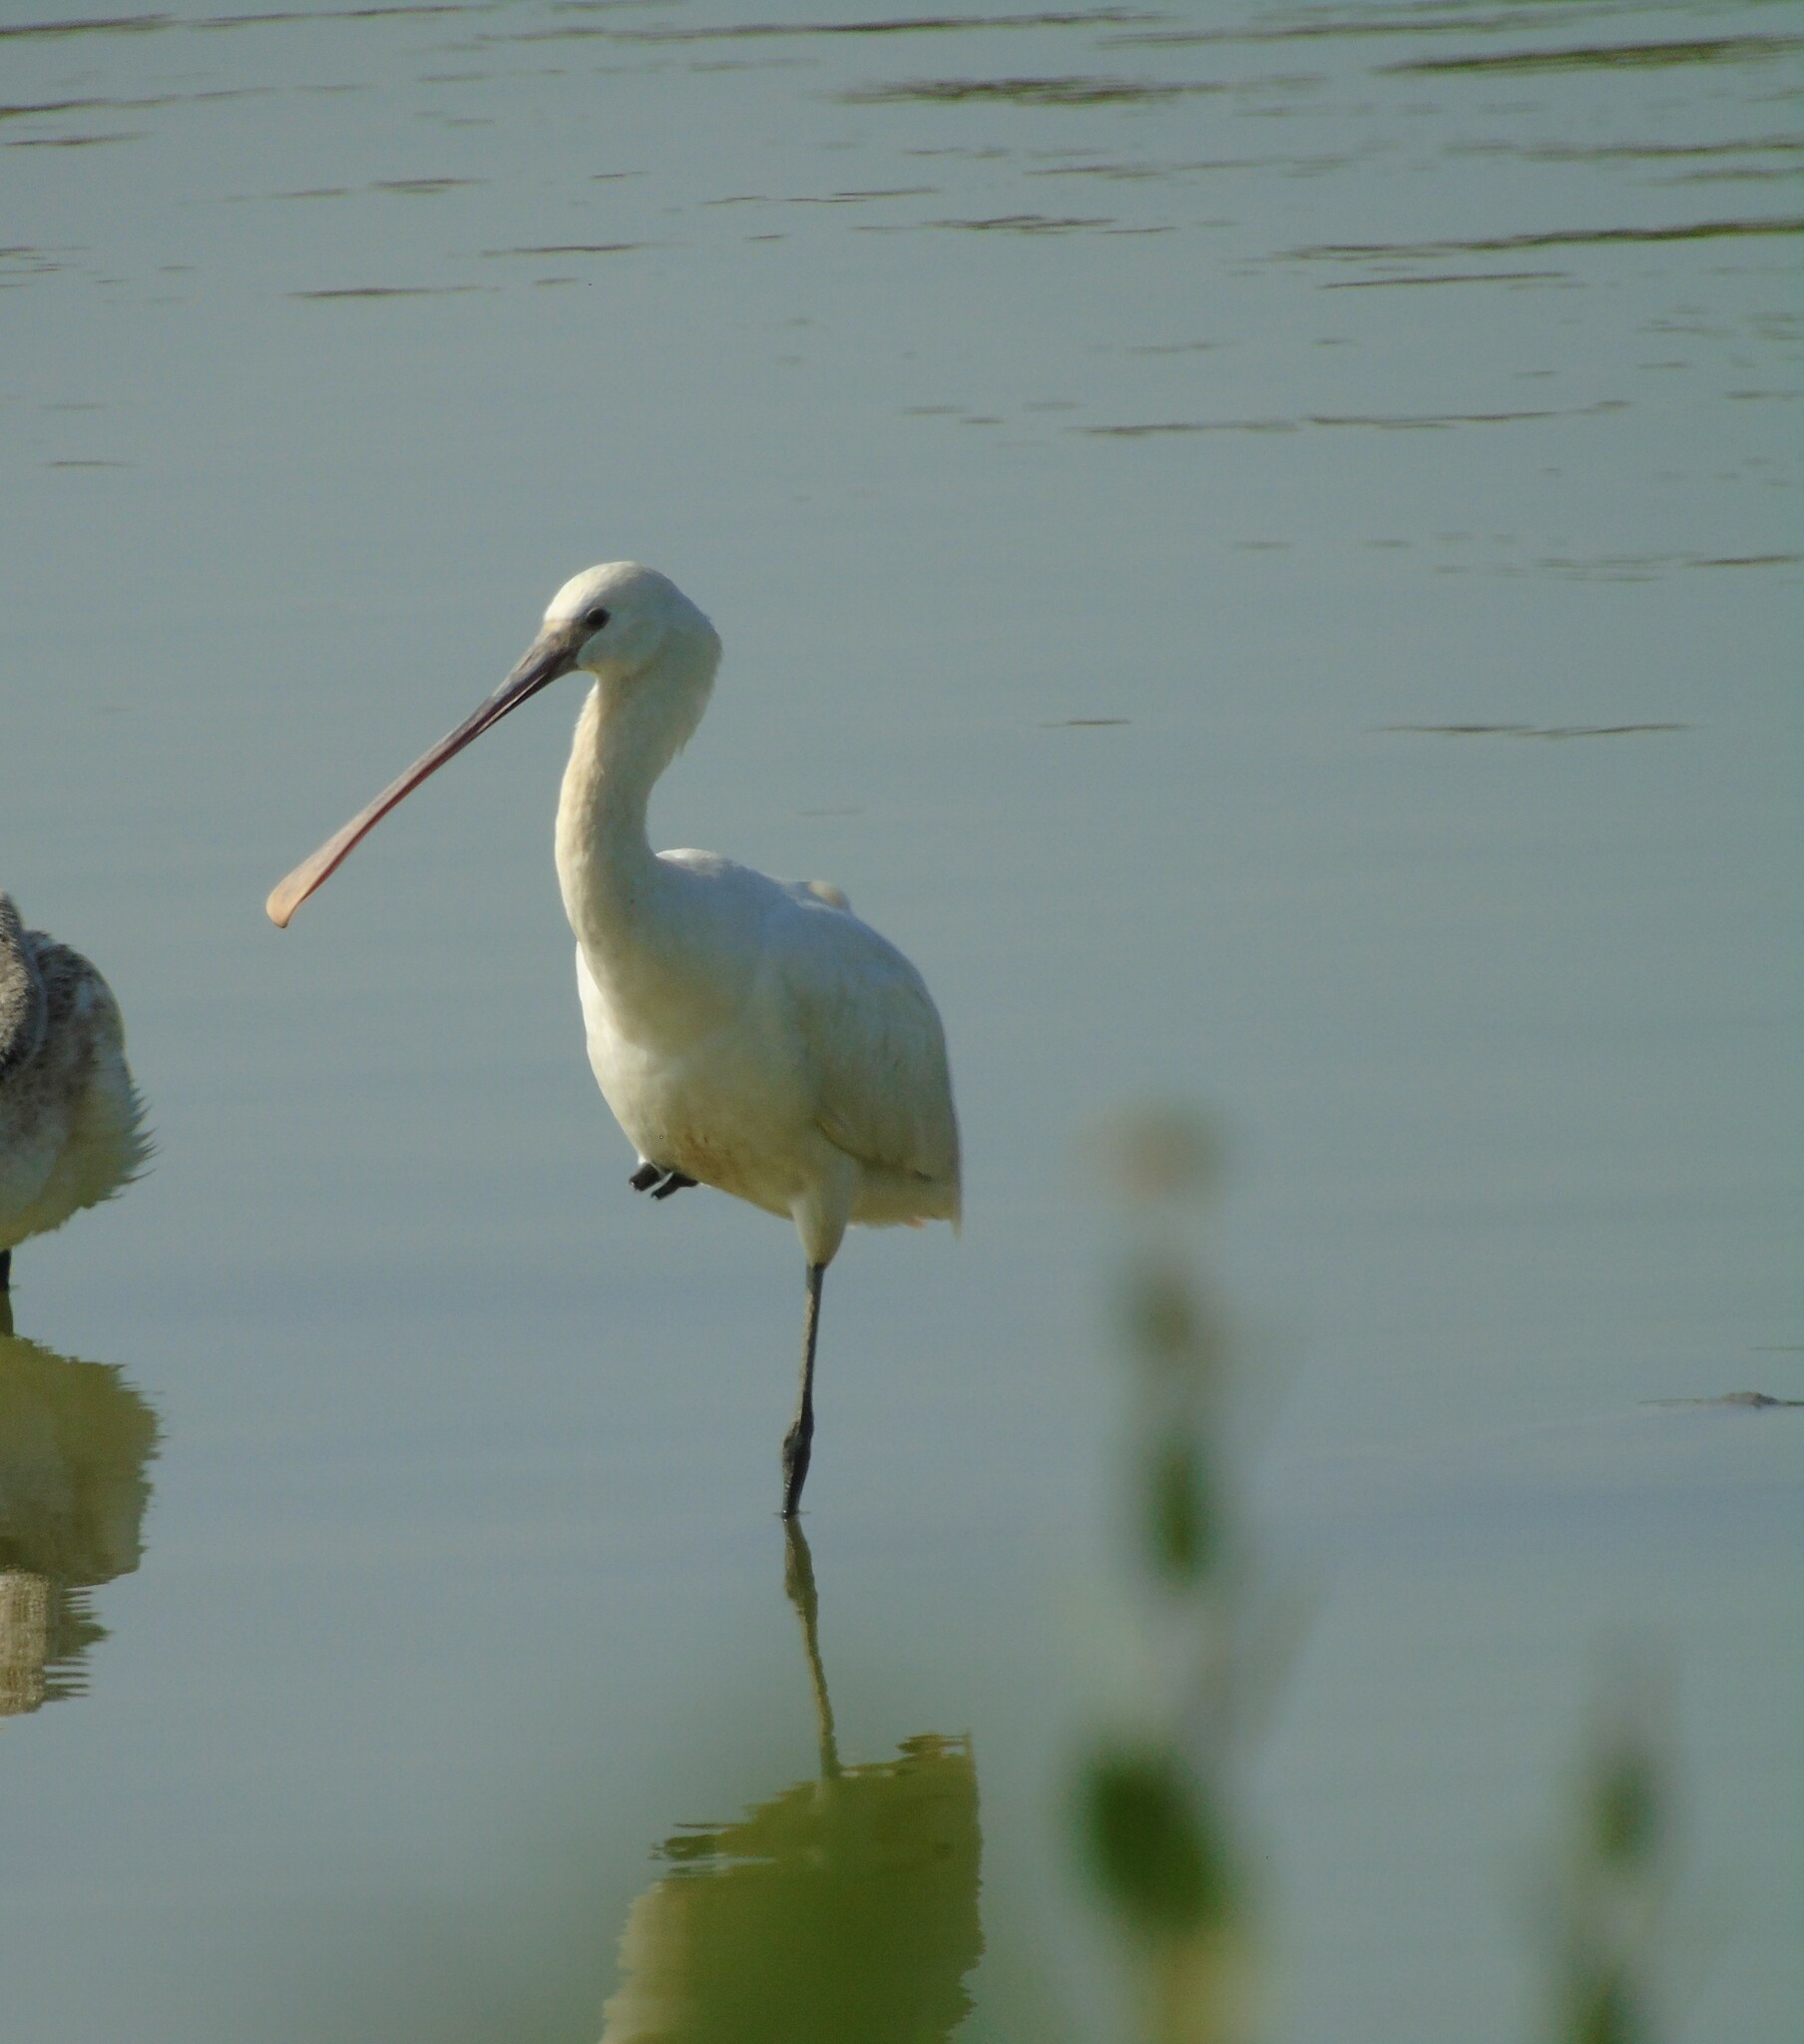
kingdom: Animalia
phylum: Chordata
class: Aves
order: Pelecaniformes
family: Threskiornithidae
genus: Platalea
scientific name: Platalea leucorodia
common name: Eurasian spoonbill
